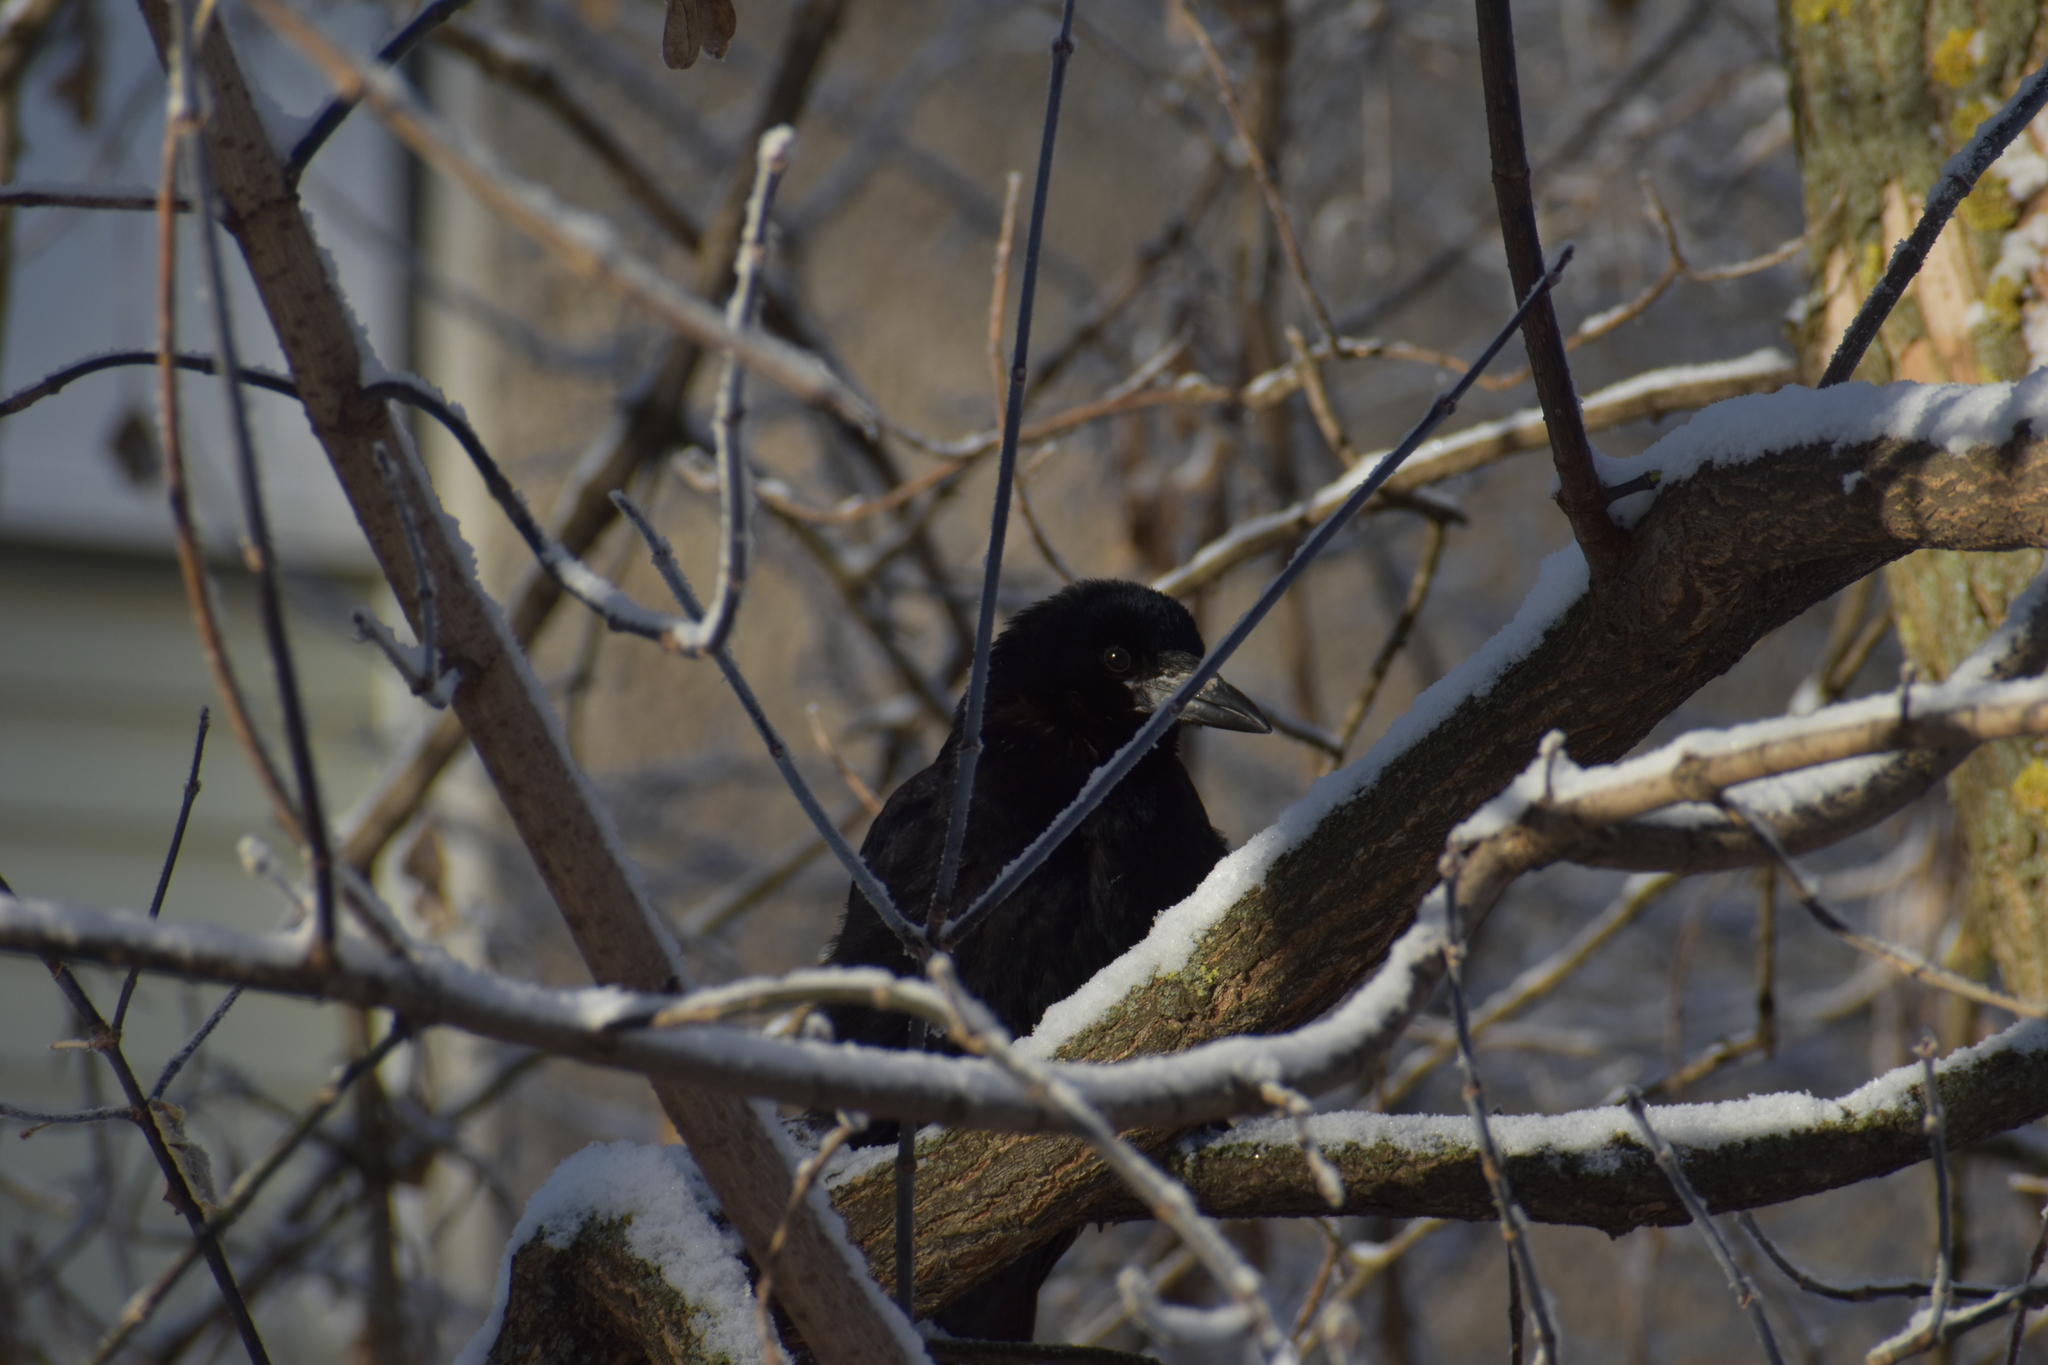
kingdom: Animalia
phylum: Chordata
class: Aves
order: Passeriformes
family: Corvidae
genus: Corvus
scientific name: Corvus frugilegus
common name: Rook
